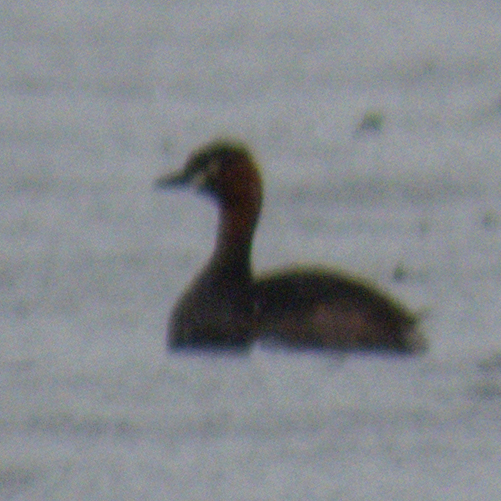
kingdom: Animalia
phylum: Chordata
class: Aves
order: Podicipediformes
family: Podicipedidae
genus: Tachybaptus
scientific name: Tachybaptus ruficollis
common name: Little grebe
